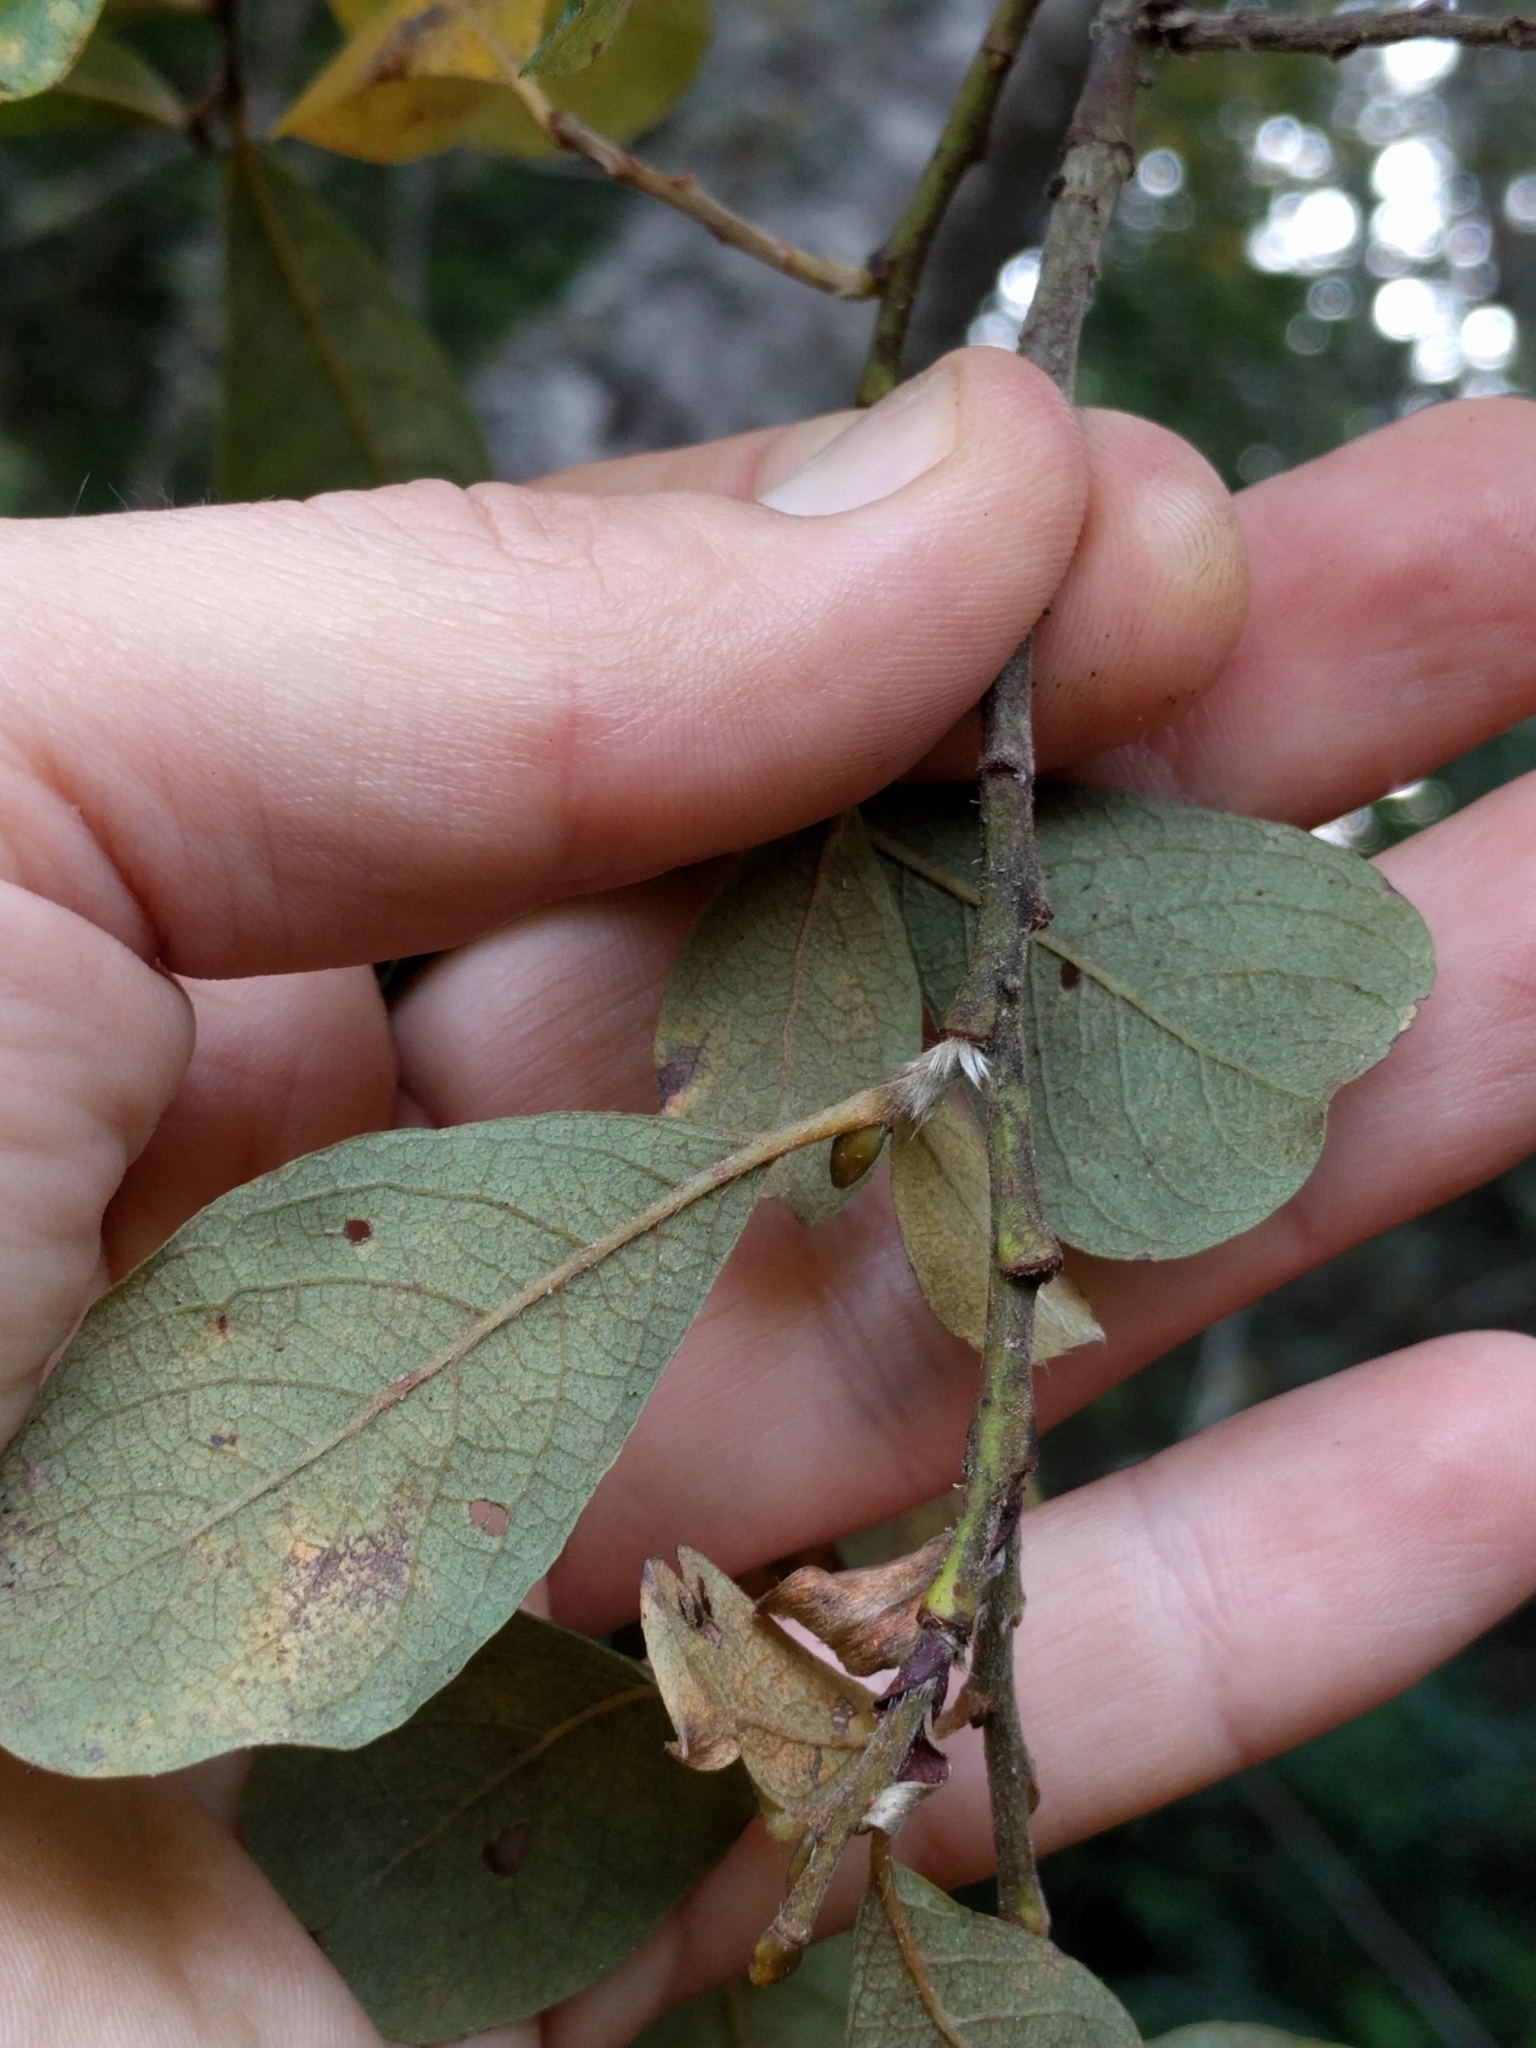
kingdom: Plantae
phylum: Tracheophyta
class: Magnoliopsida
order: Malpighiales
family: Salicaceae
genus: Salix
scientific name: Salix scouleriana
